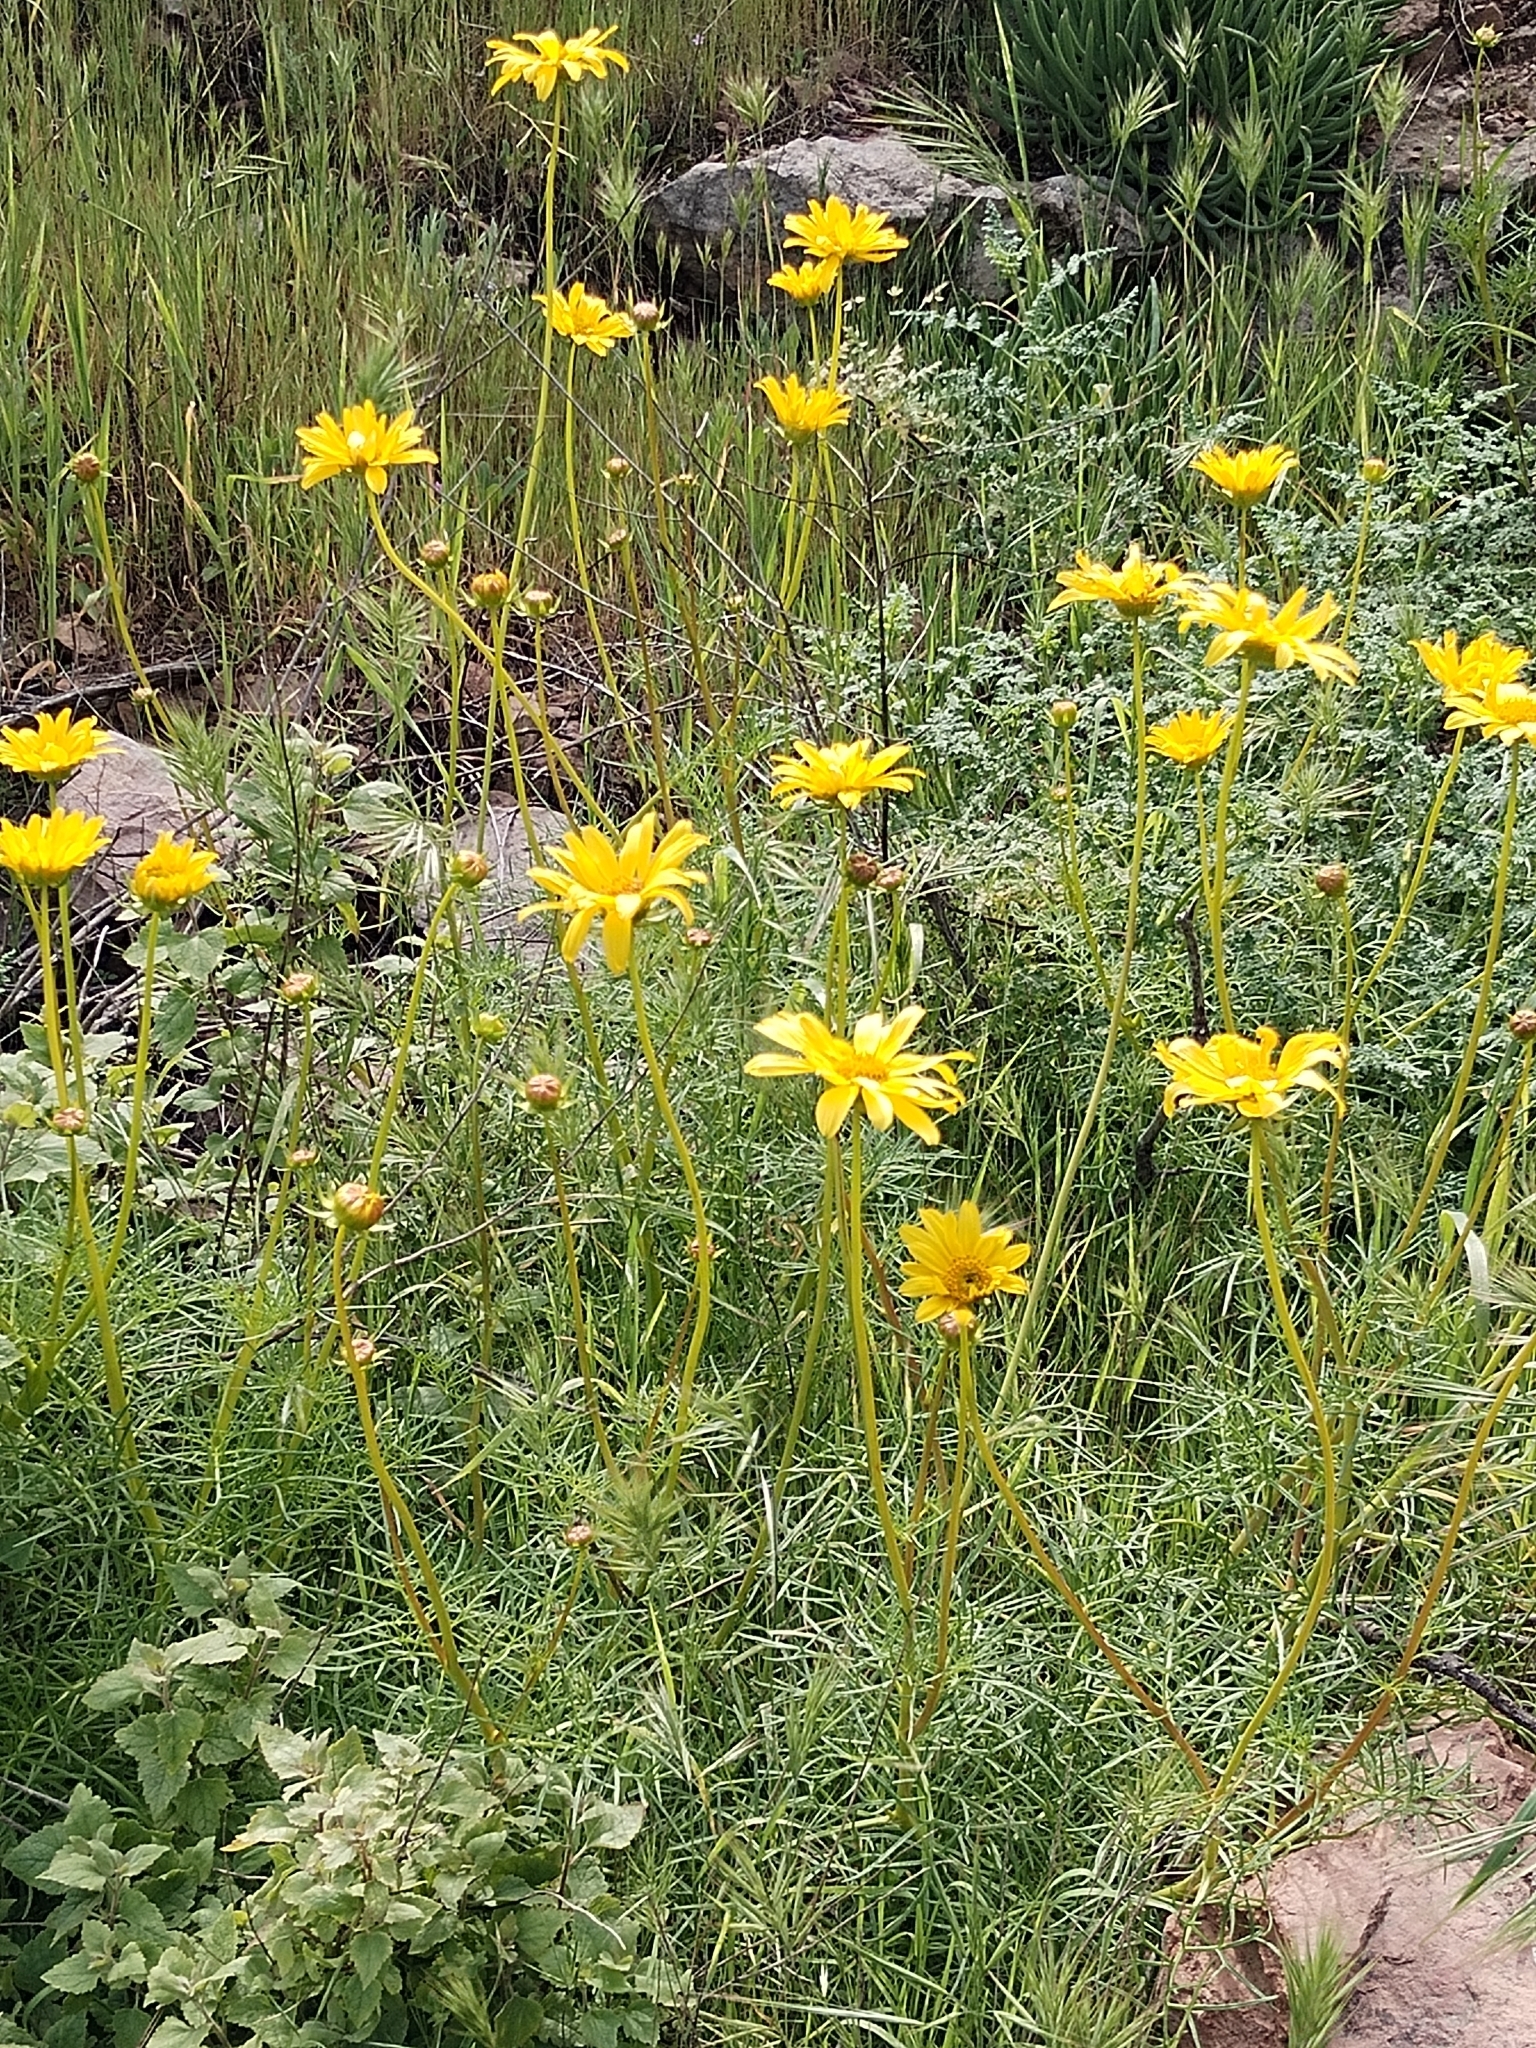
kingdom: Plantae
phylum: Tracheophyta
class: Magnoliopsida
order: Asterales
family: Asteraceae
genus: Coreopsis
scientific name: Coreopsis maritima
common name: Sea-dahlia
